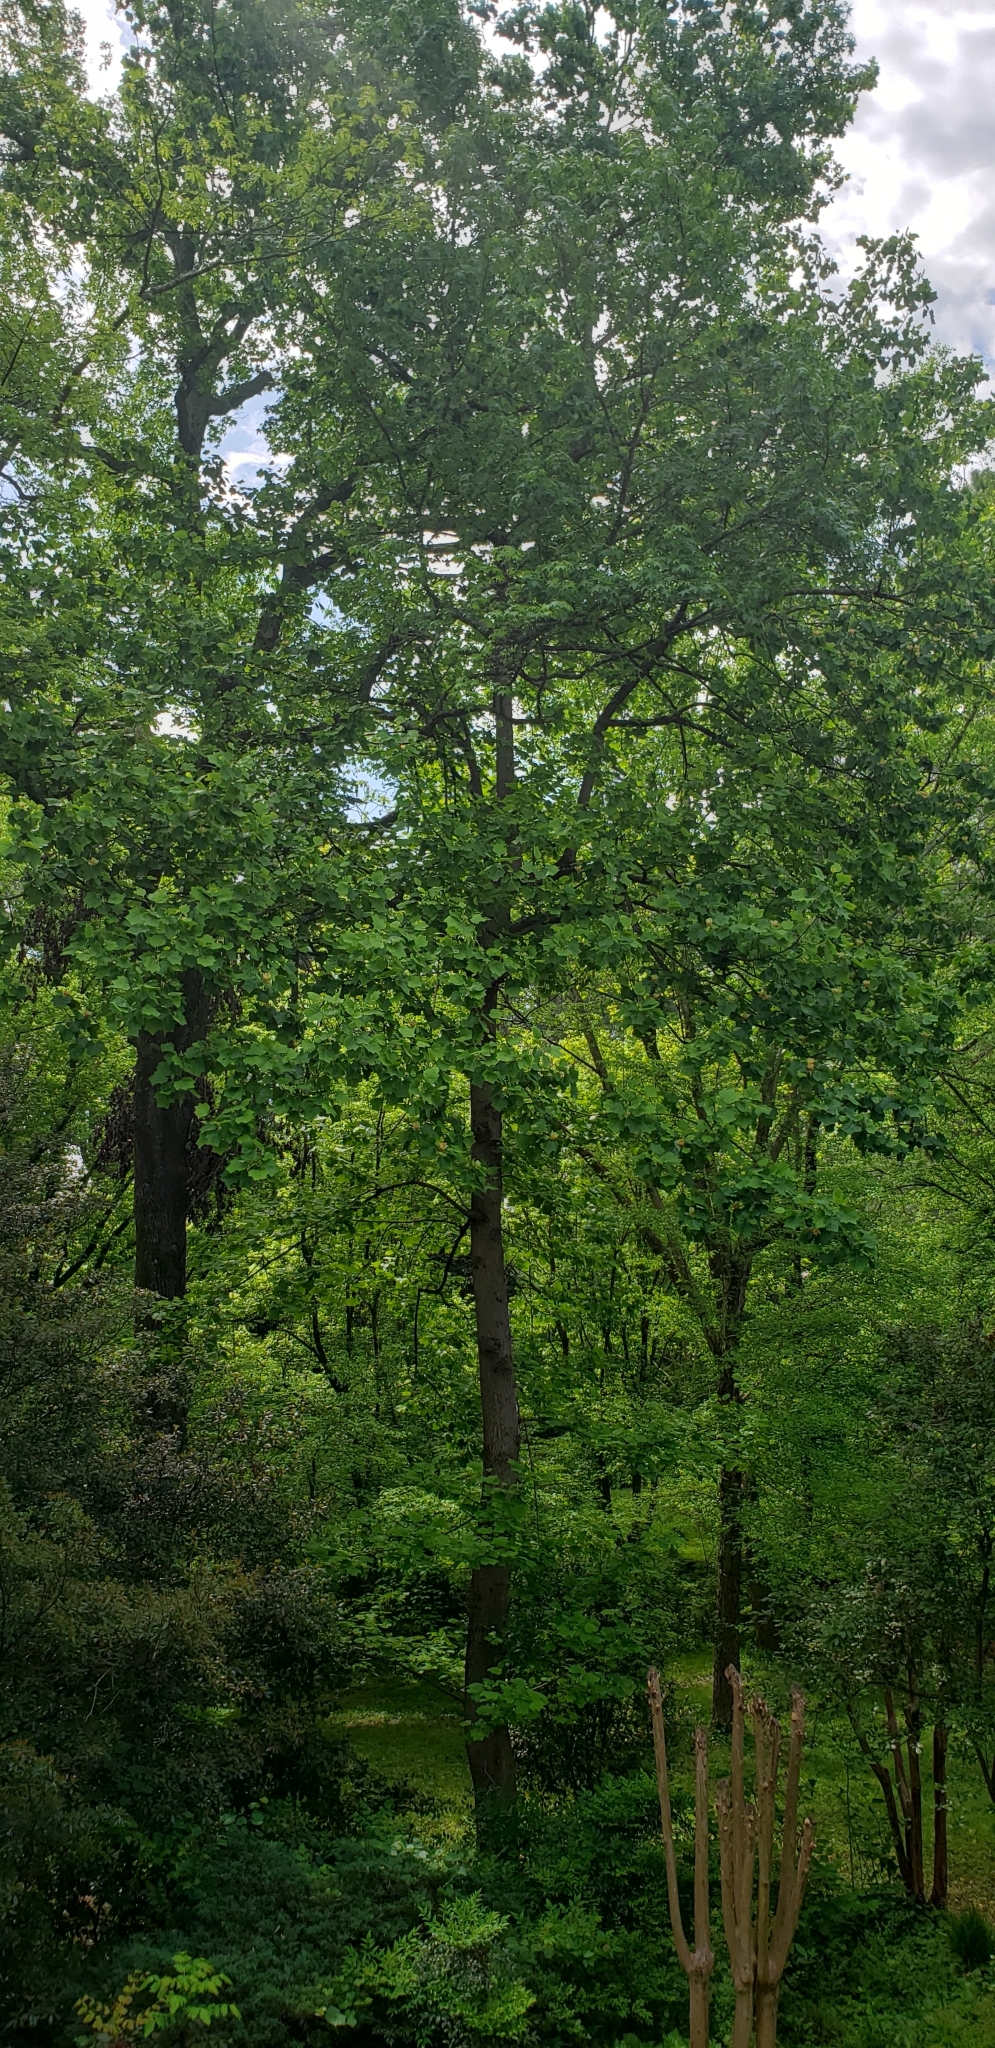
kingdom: Plantae
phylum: Tracheophyta
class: Magnoliopsida
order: Magnoliales
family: Magnoliaceae
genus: Liriodendron
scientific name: Liriodendron tulipifera
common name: Tulip tree
